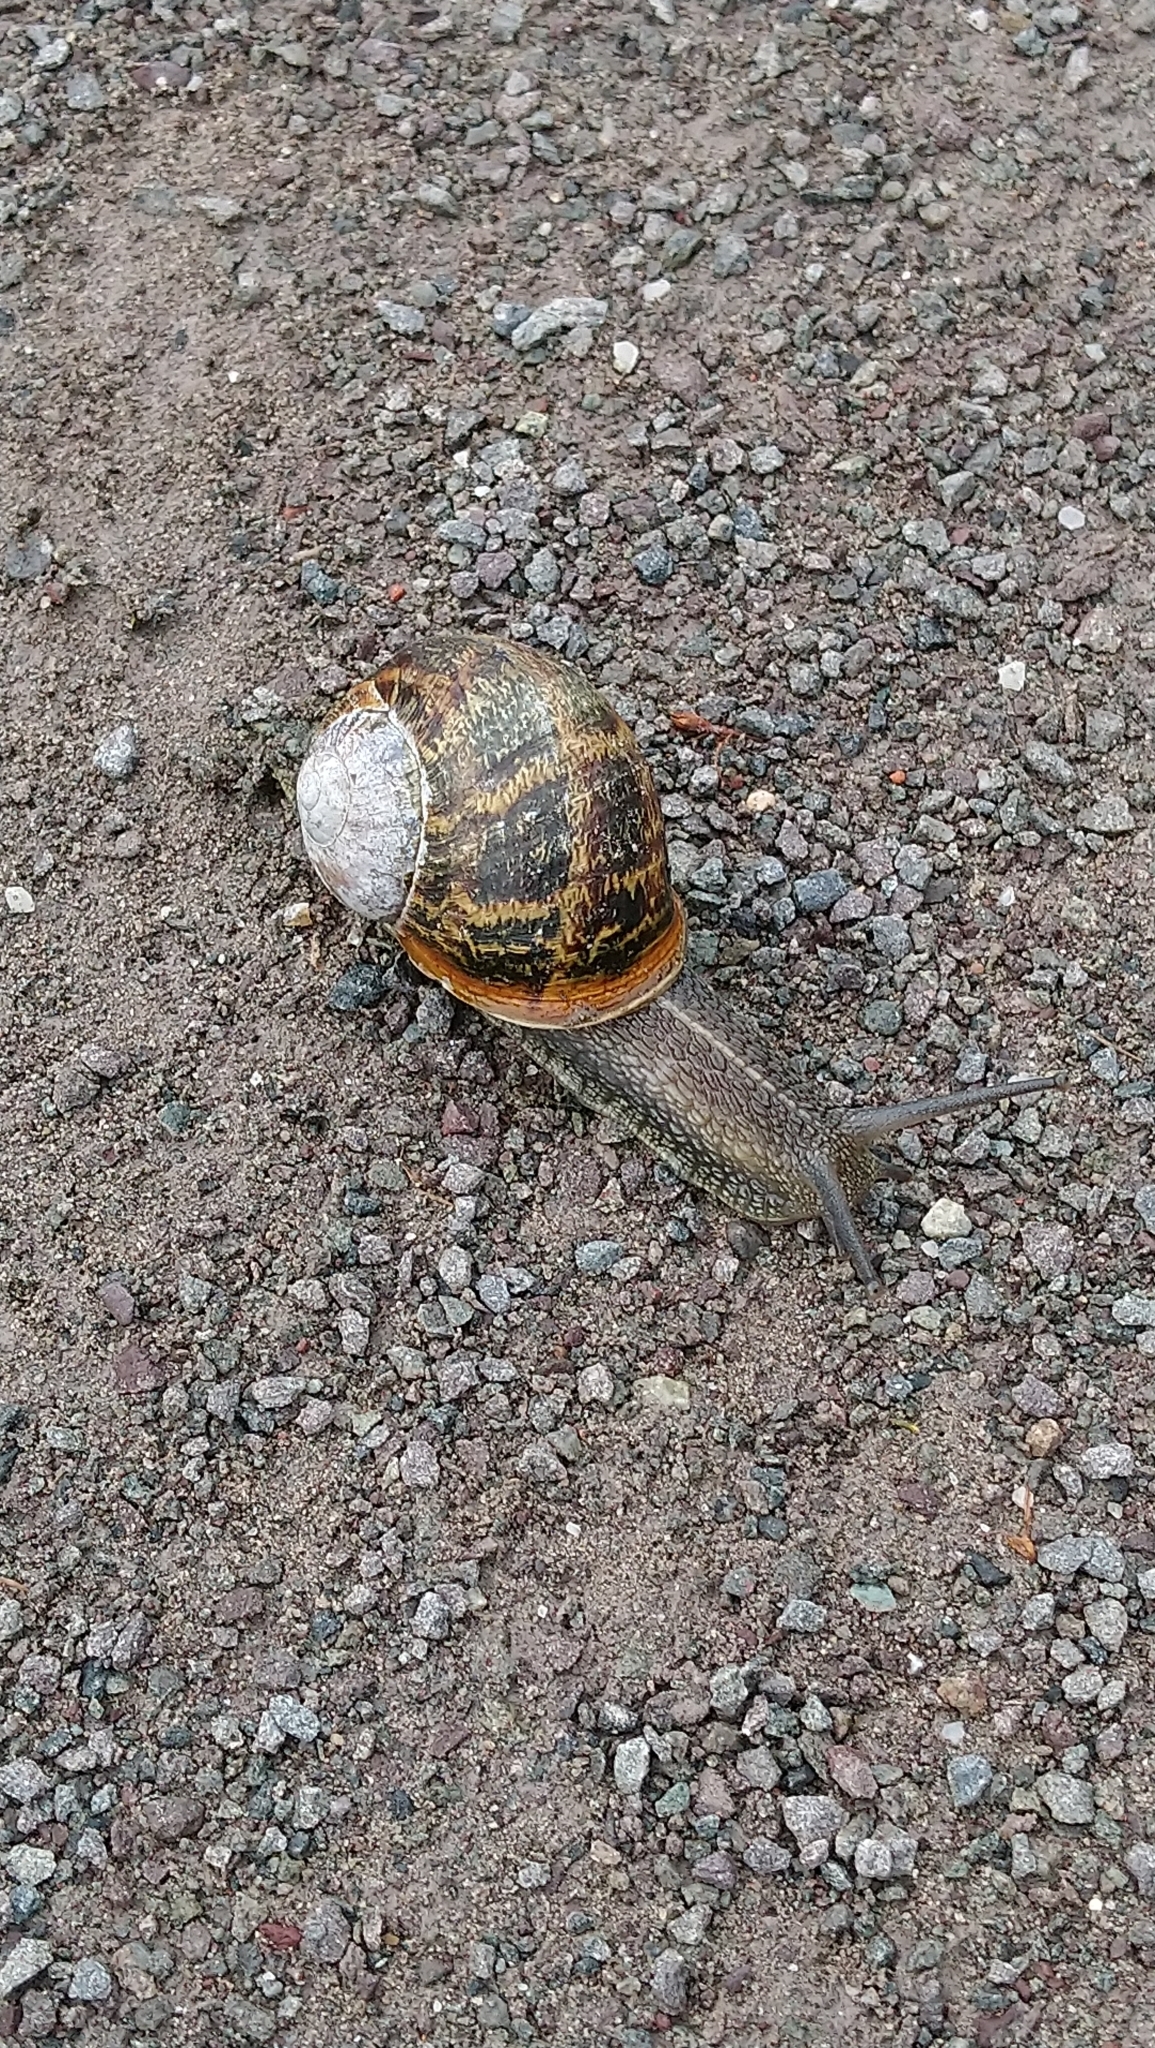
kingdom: Animalia
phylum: Mollusca
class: Gastropoda
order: Stylommatophora
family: Helicidae
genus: Cornu
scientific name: Cornu aspersum
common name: Brown garden snail
